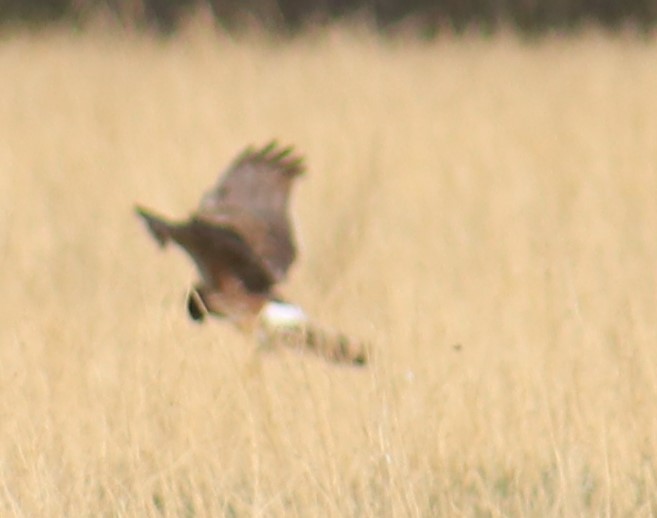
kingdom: Animalia
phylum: Chordata
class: Aves
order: Accipitriformes
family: Accipitridae
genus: Circus
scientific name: Circus cyaneus
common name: Hen harrier
